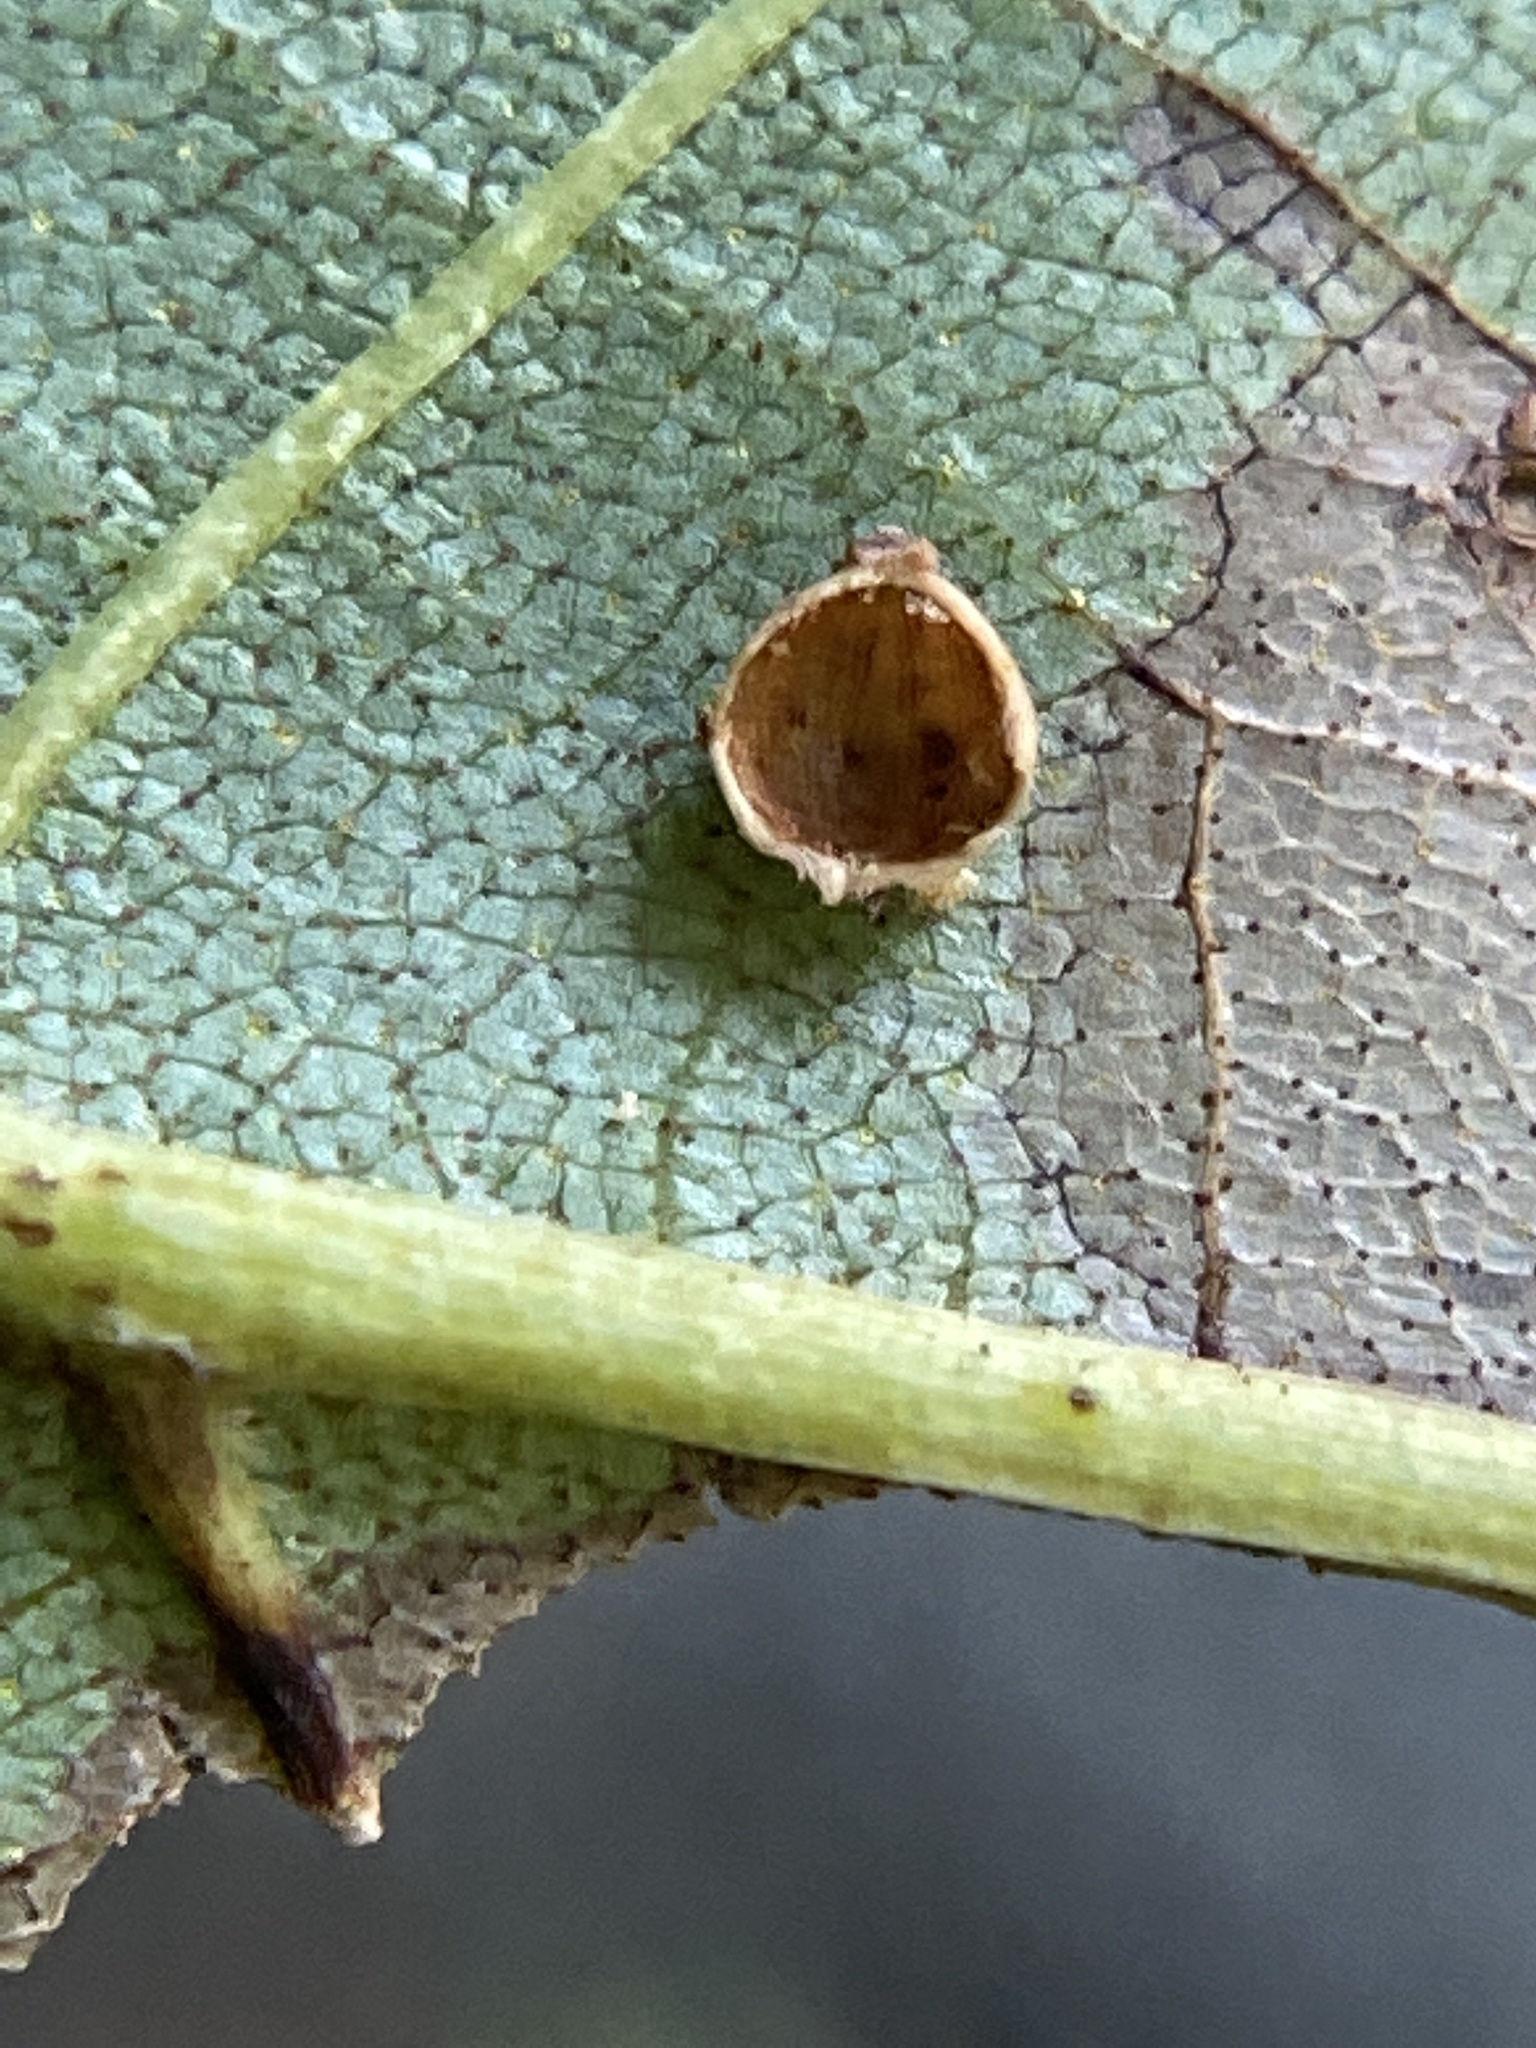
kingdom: Animalia
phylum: Arthropoda
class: Insecta
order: Diptera
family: Cecidomyiidae
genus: Caryomyia
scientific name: Caryomyia leviglobus
